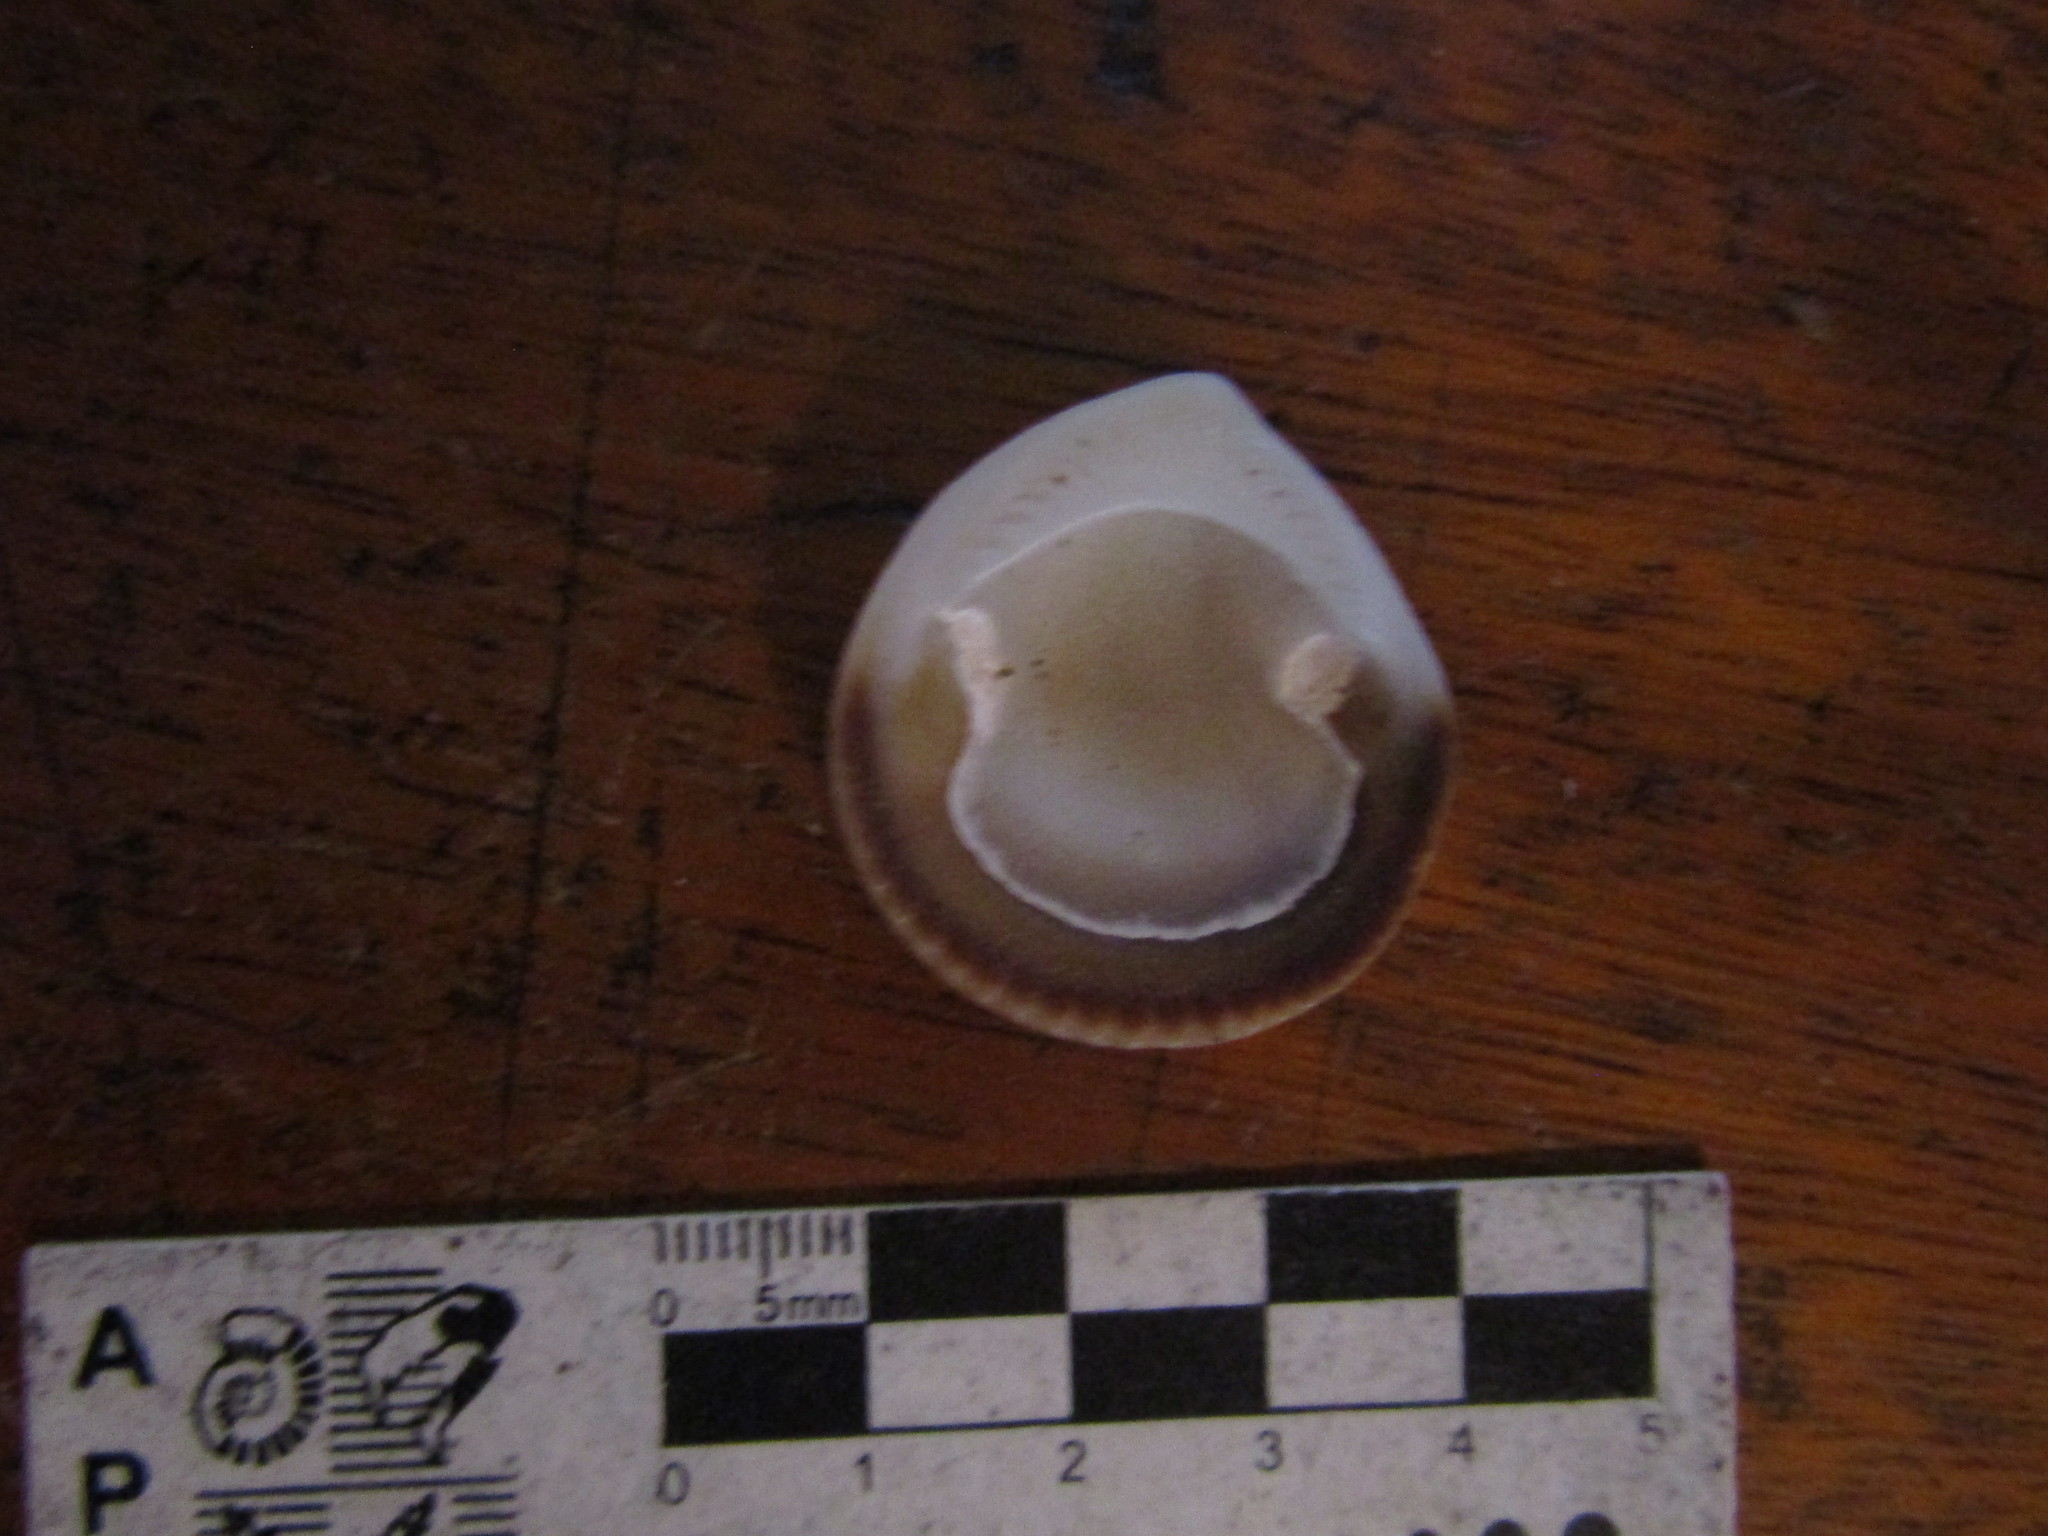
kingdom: Animalia
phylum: Mollusca
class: Bivalvia
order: Arcida
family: Glycymerididae
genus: Glycymeris
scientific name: Glycymeris longior
